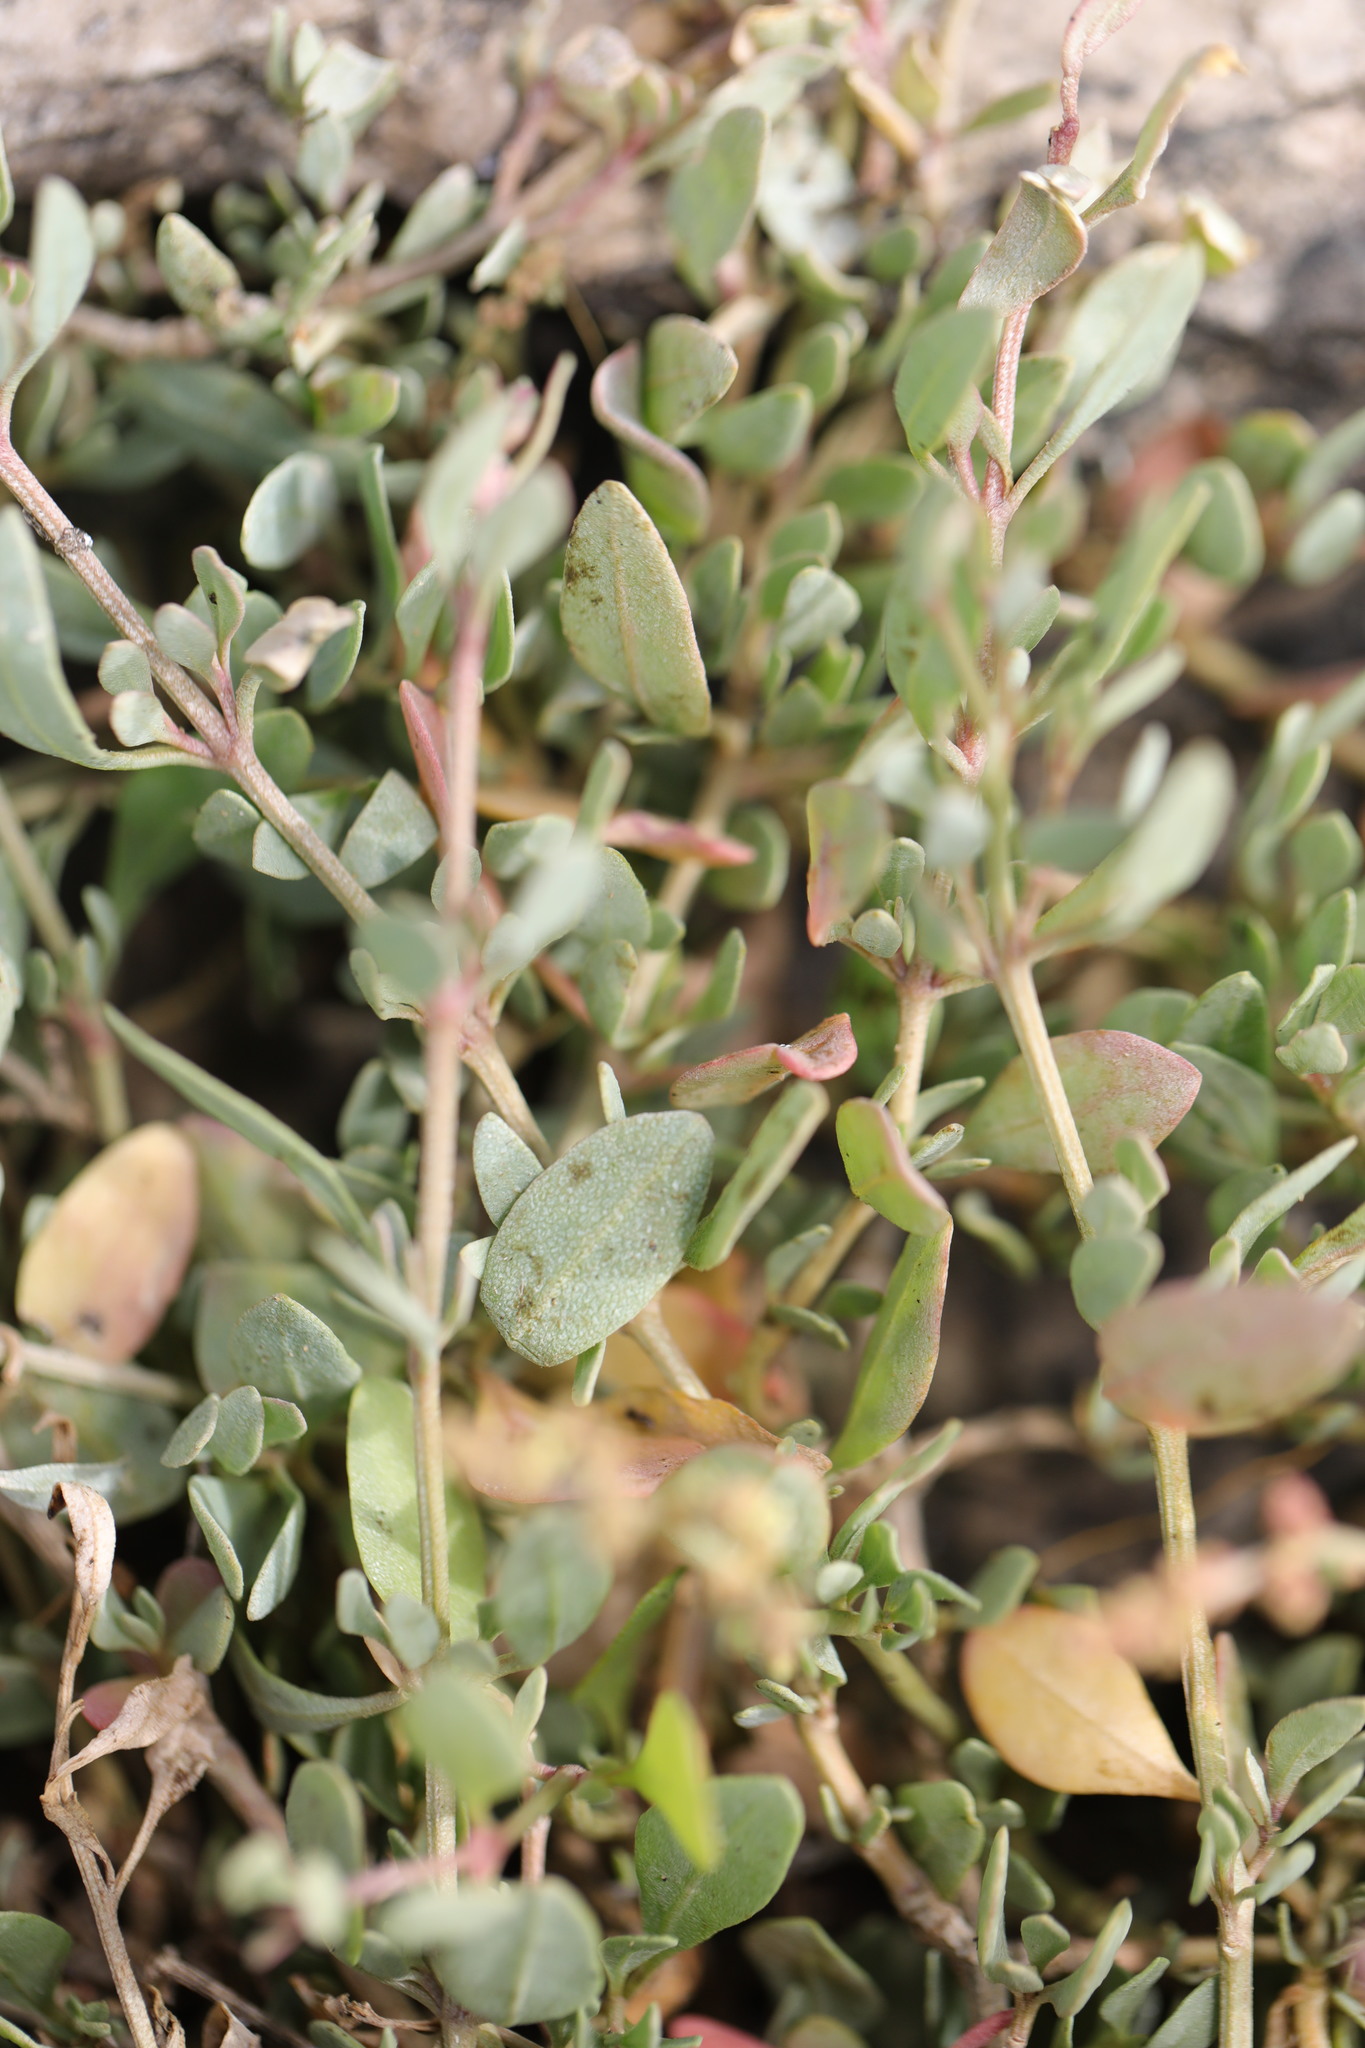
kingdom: Plantae
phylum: Tracheophyta
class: Magnoliopsida
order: Caryophyllales
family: Amaranthaceae
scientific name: Amaranthaceae
